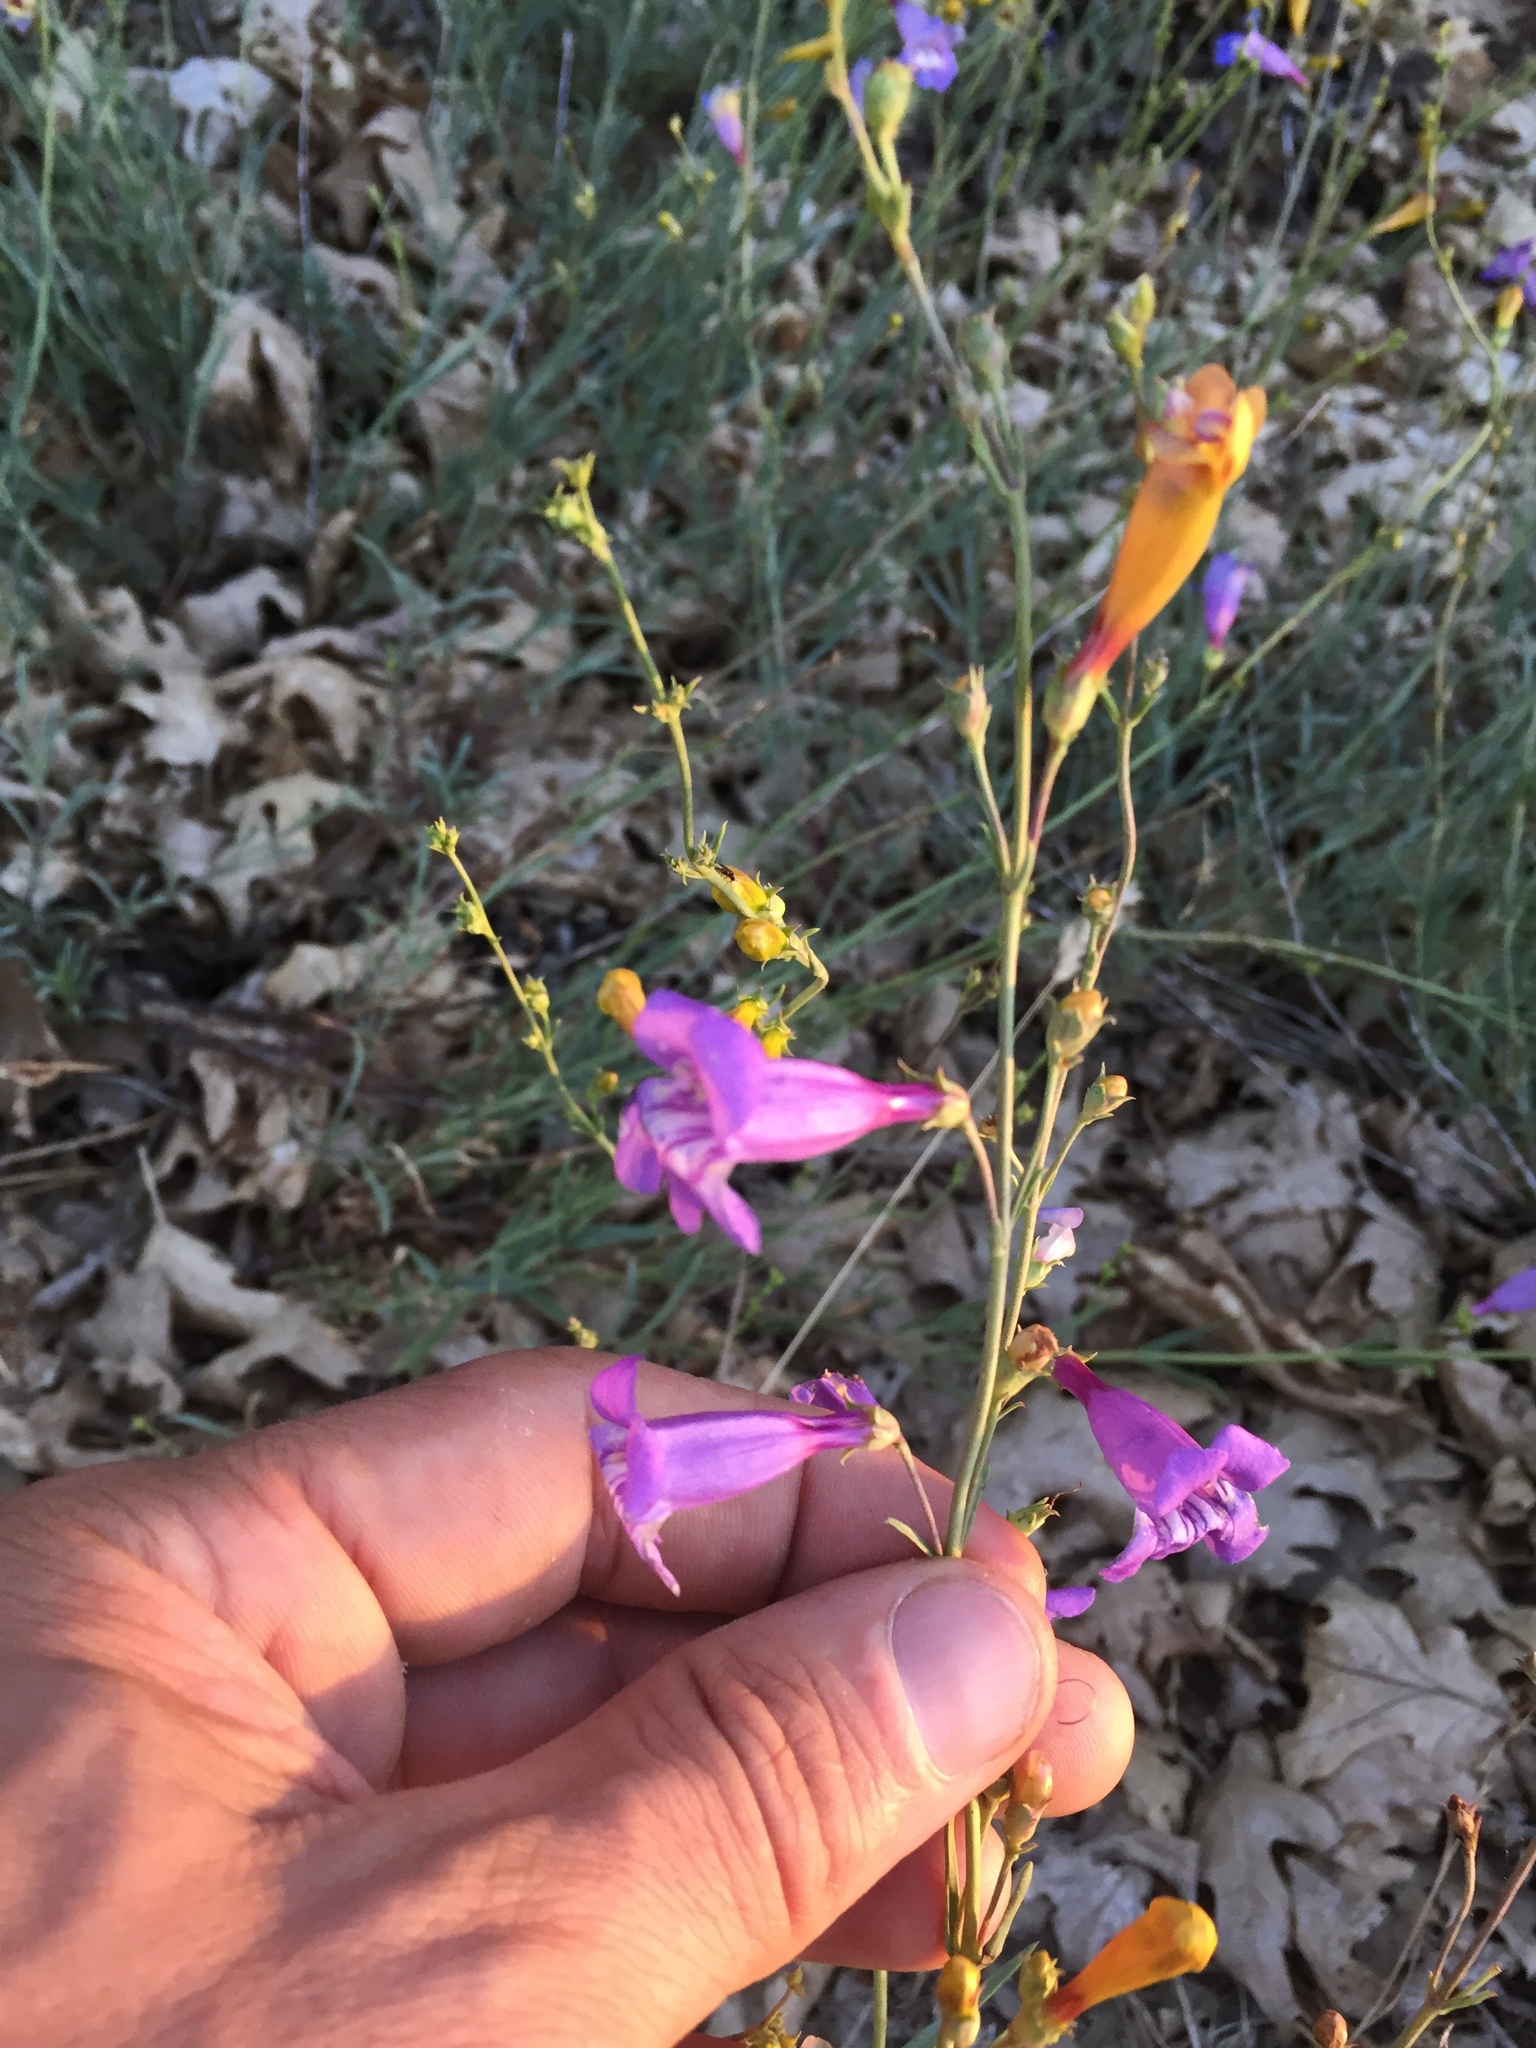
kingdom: Plantae
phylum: Tracheophyta
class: Magnoliopsida
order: Lamiales
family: Plantaginaceae
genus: Penstemon
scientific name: Penstemon heterophyllus
